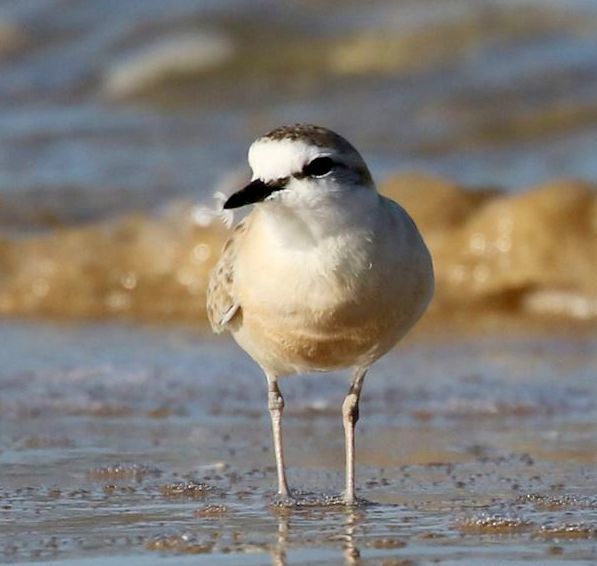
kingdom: Animalia
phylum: Chordata
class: Aves
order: Charadriiformes
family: Charadriidae
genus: Anarhynchus
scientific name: Anarhynchus
